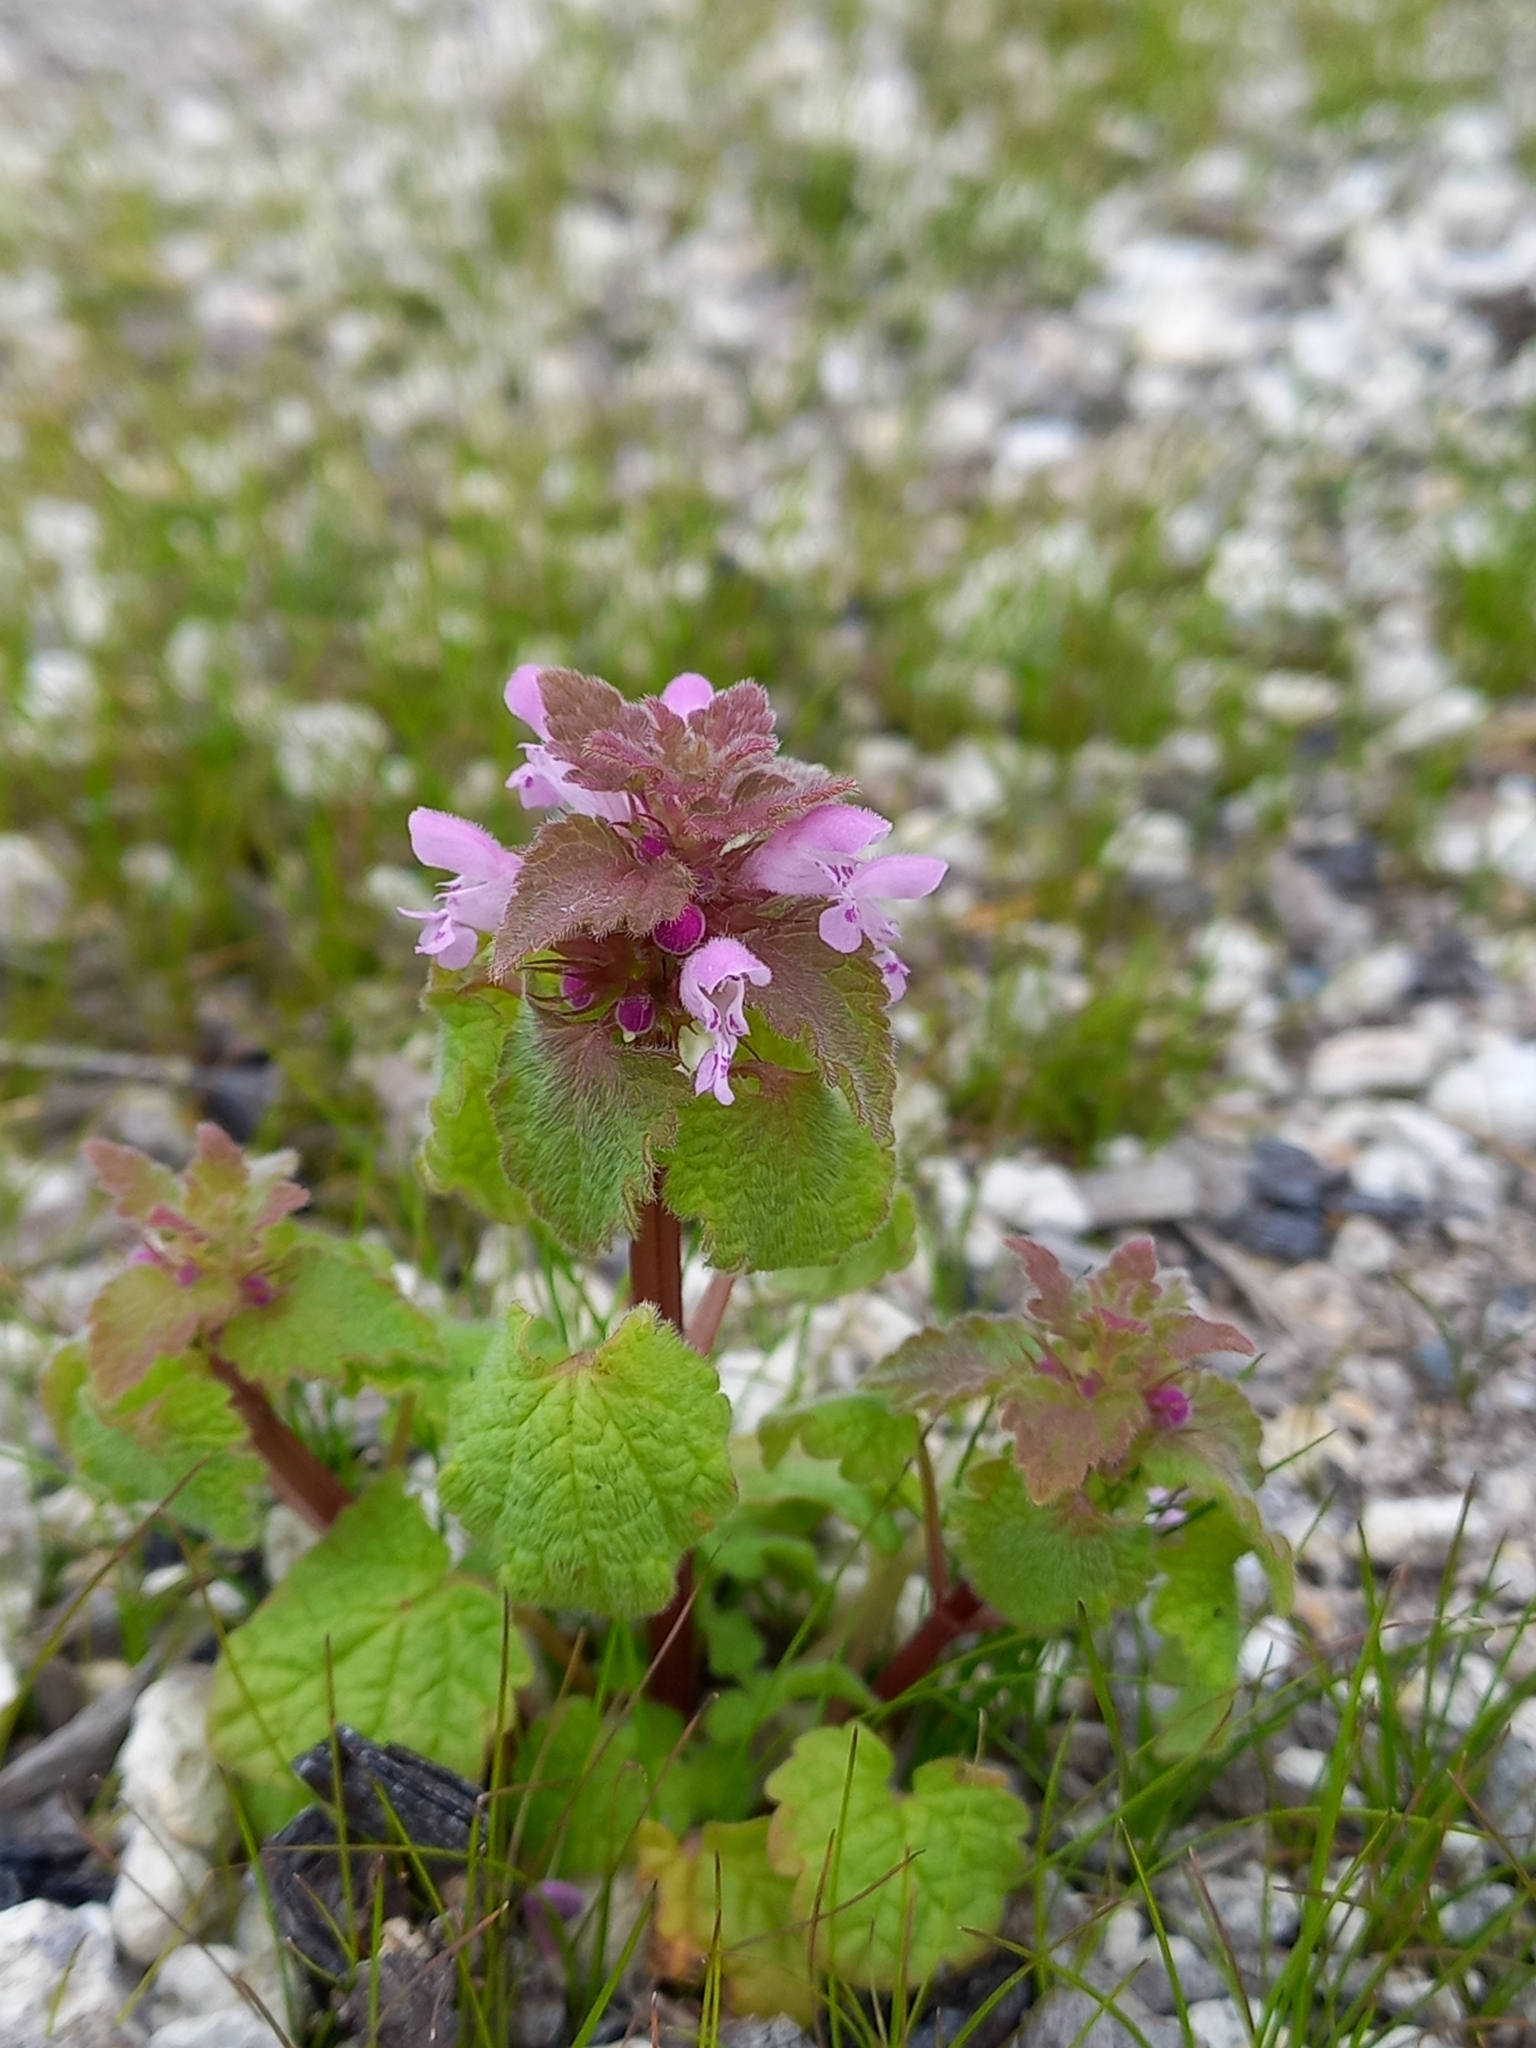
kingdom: Plantae
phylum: Tracheophyta
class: Magnoliopsida
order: Lamiales
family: Lamiaceae
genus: Lamium
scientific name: Lamium purpureum
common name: Red dead-nettle
